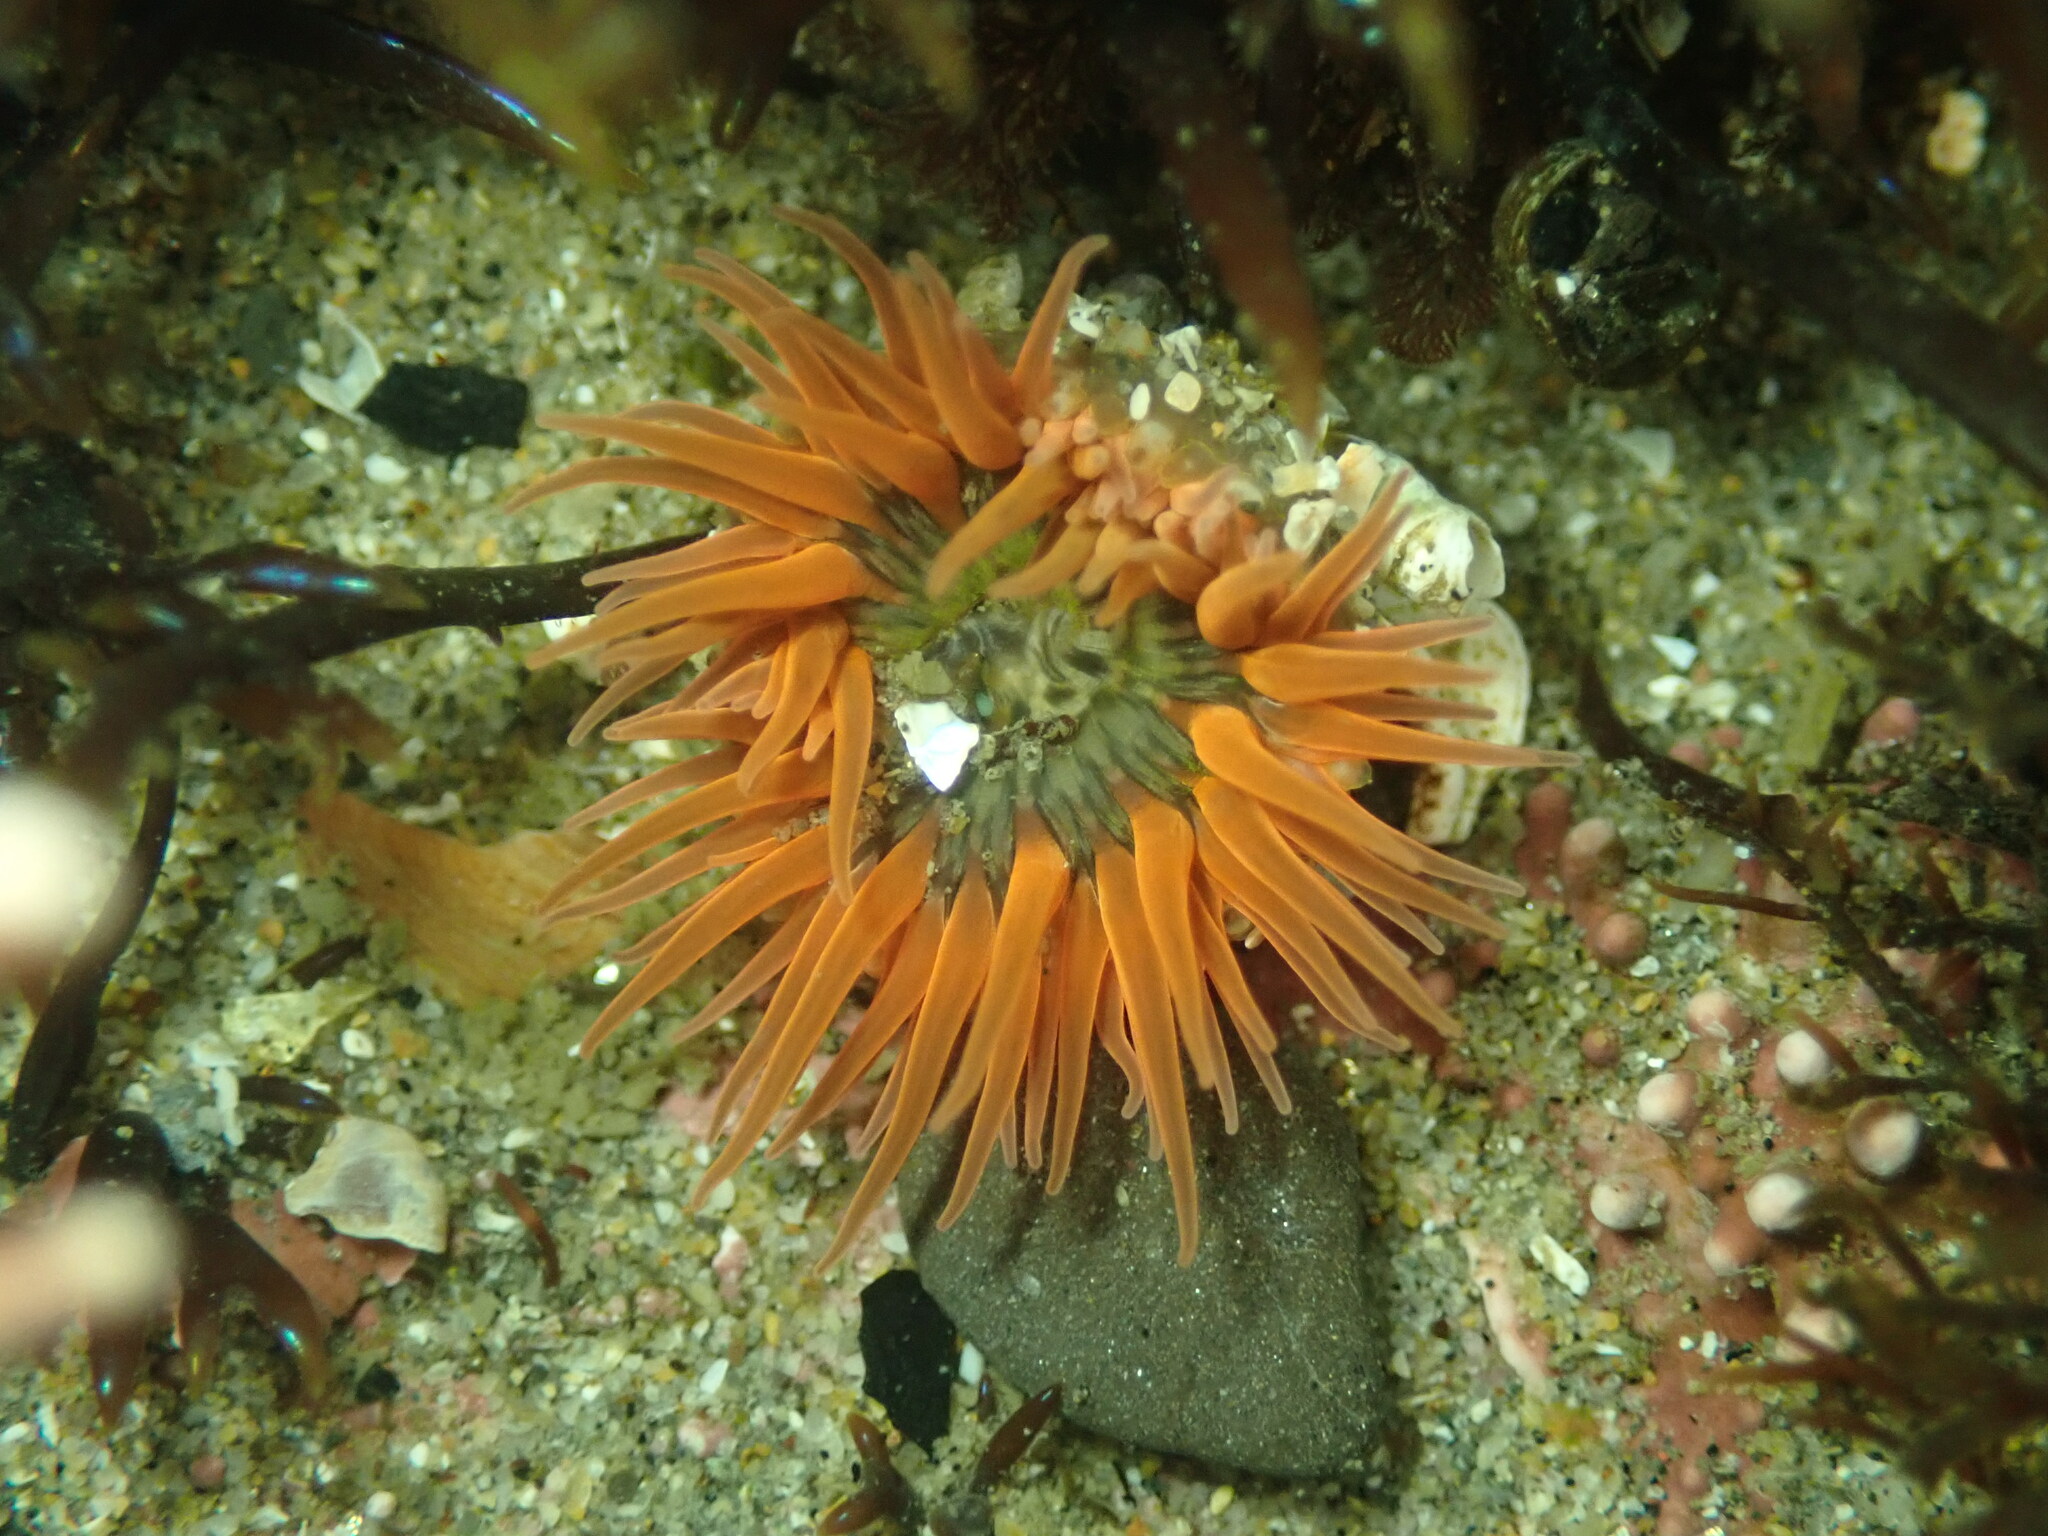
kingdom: Animalia
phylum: Cnidaria
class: Anthozoa
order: Actiniaria
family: Actiniidae
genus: Anthopleura
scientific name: Anthopleura artemisia
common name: Buried sea anemone
